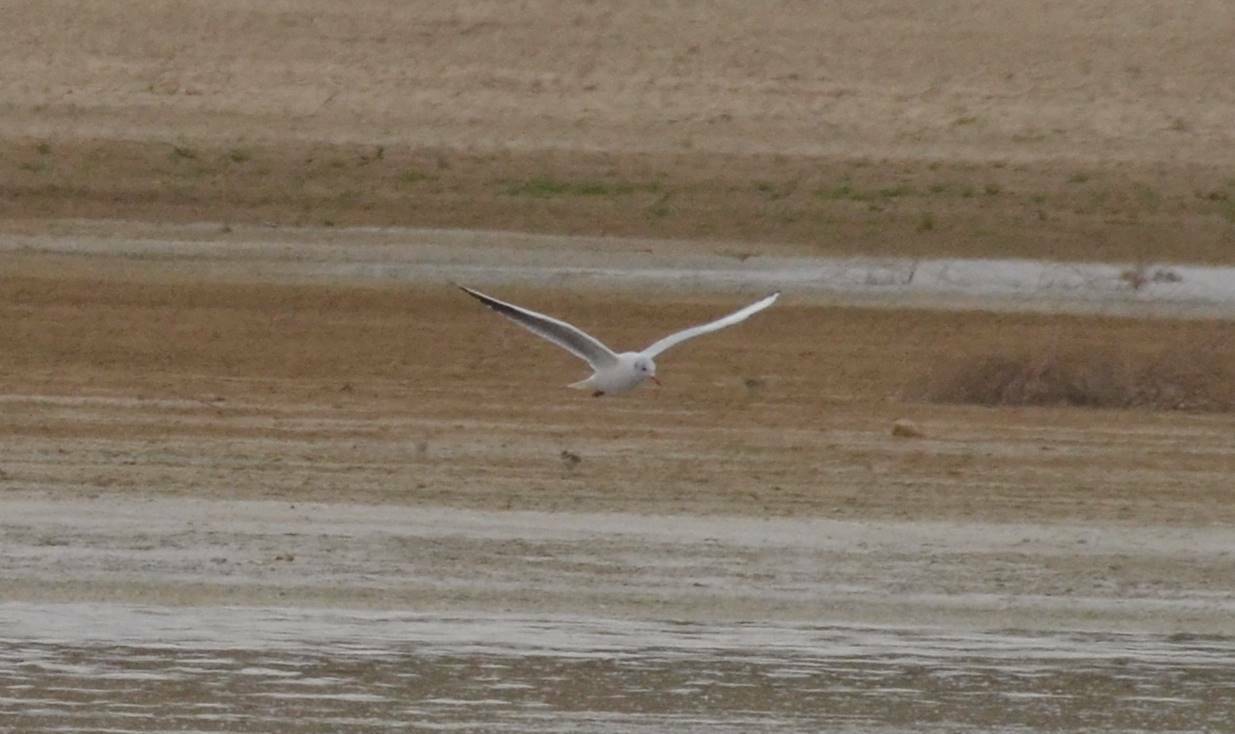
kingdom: Animalia
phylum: Chordata
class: Aves
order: Charadriiformes
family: Laridae
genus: Chroicocephalus
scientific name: Chroicocephalus ridibundus
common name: Black-headed gull
